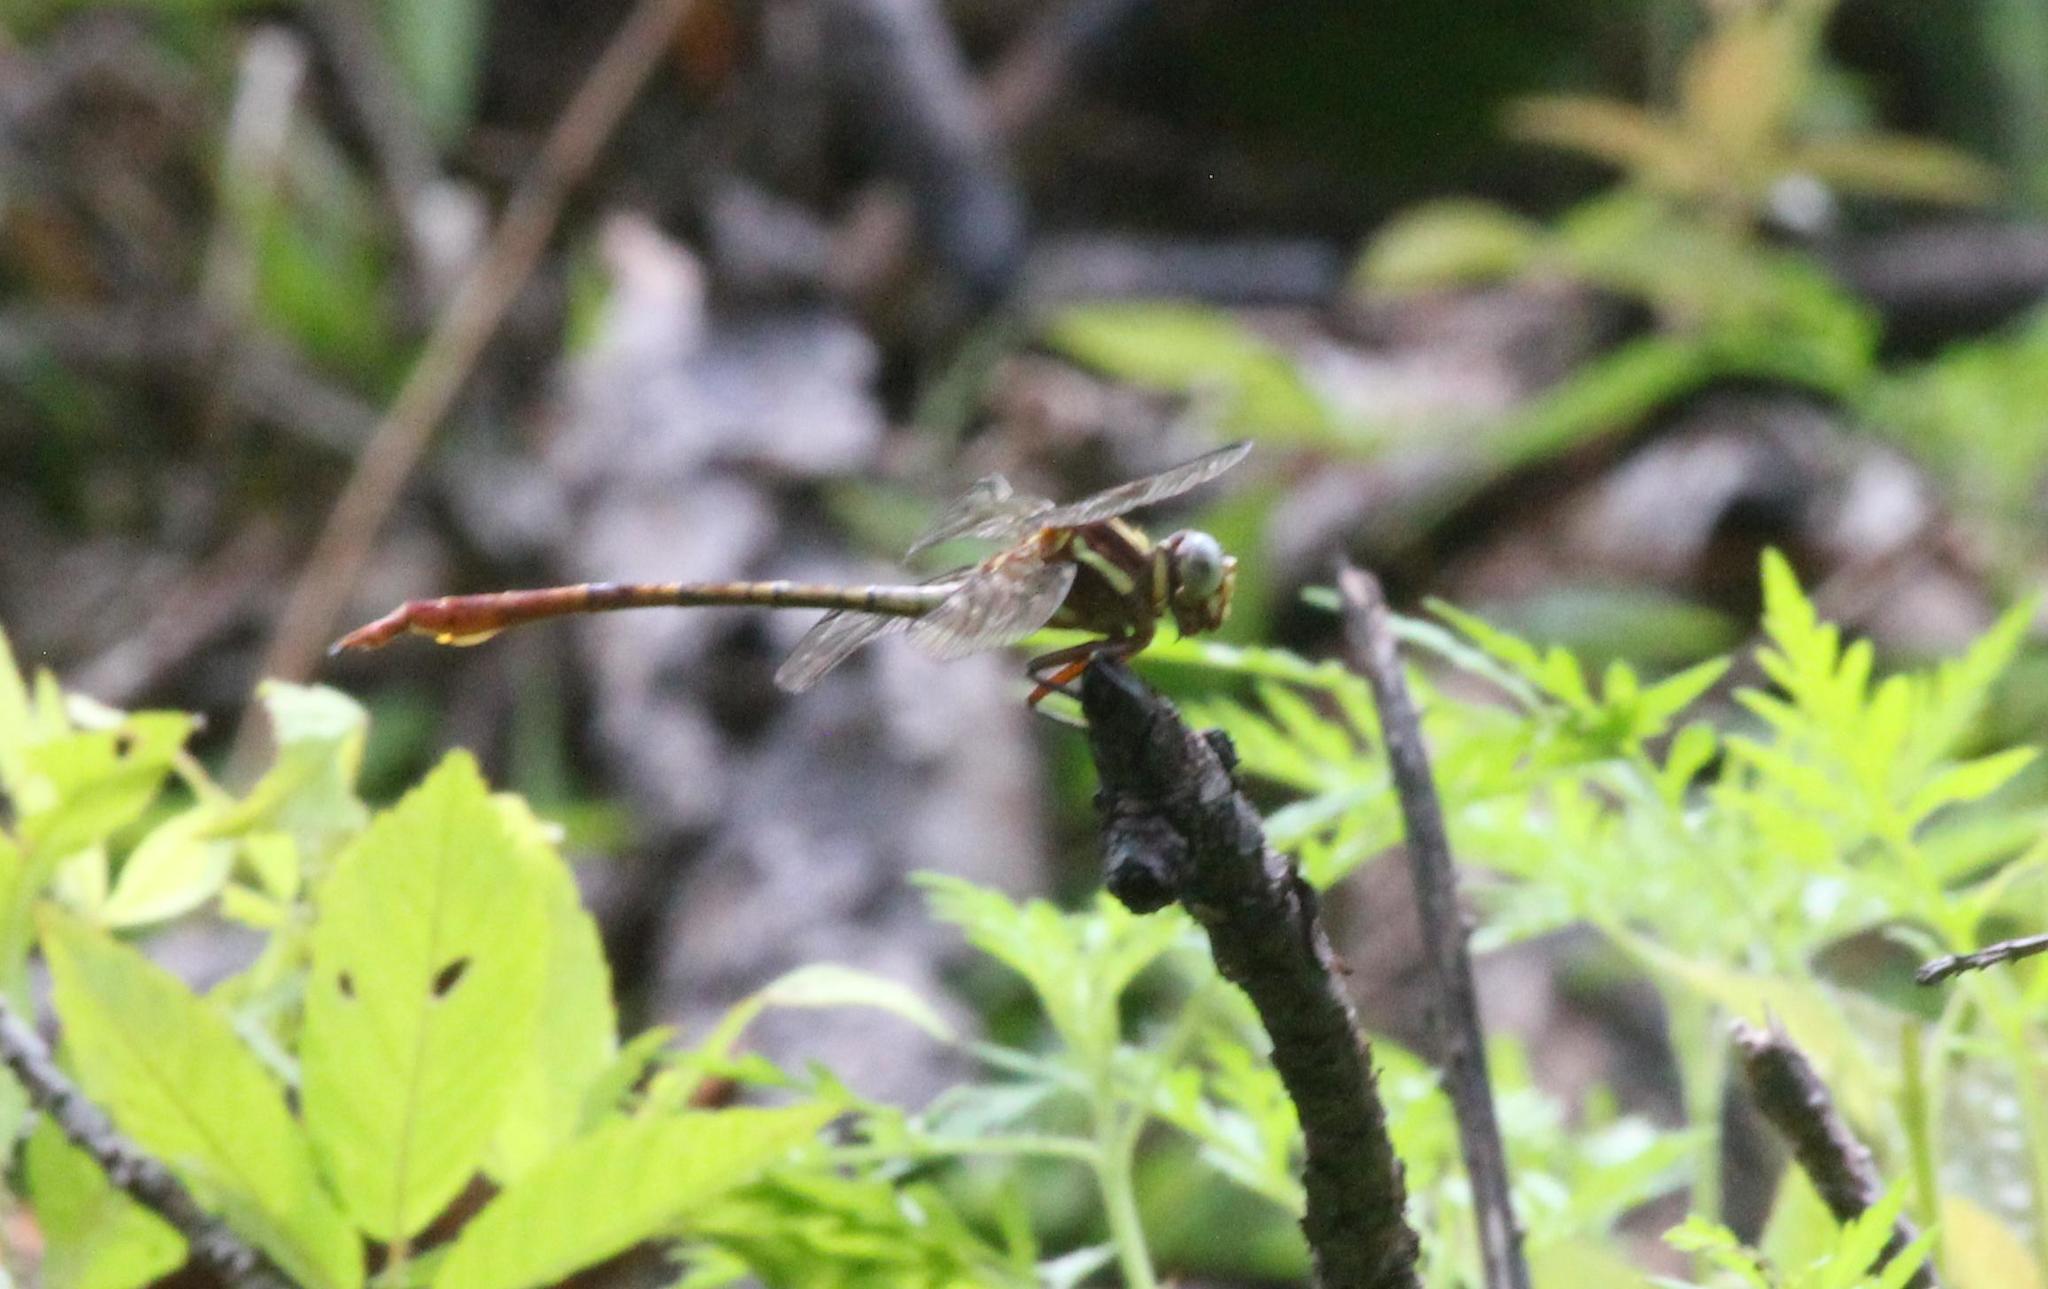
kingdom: Animalia
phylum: Arthropoda
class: Insecta
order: Odonata
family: Gomphidae
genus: Aphylla
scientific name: Aphylla williamsoni
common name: Two-striped forceptail
